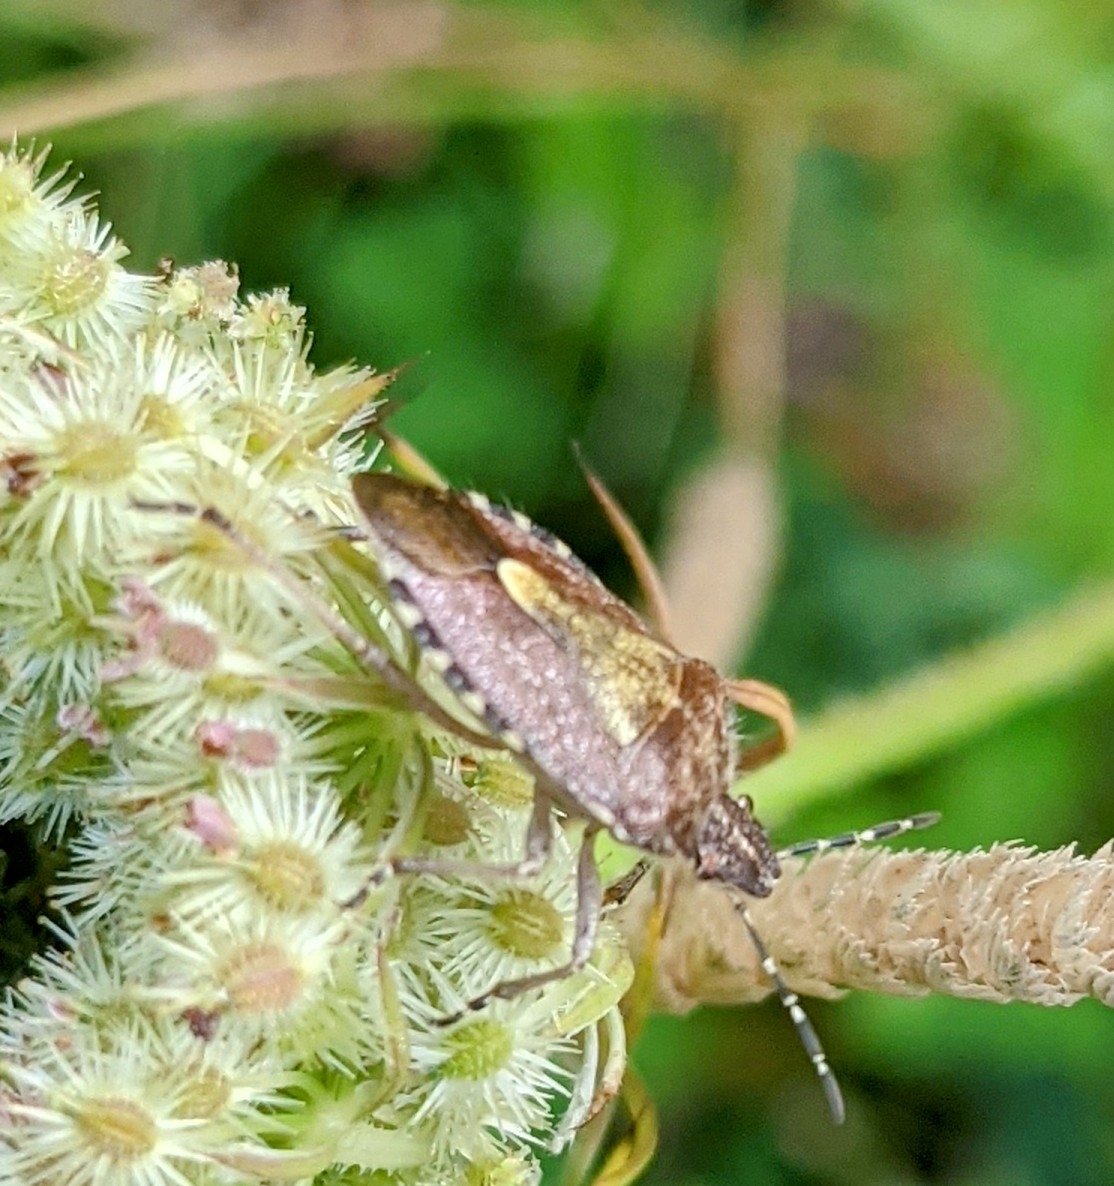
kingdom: Animalia
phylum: Arthropoda
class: Insecta
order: Hemiptera
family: Pentatomidae
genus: Dolycoris
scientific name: Dolycoris baccarum
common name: Sloe bug
